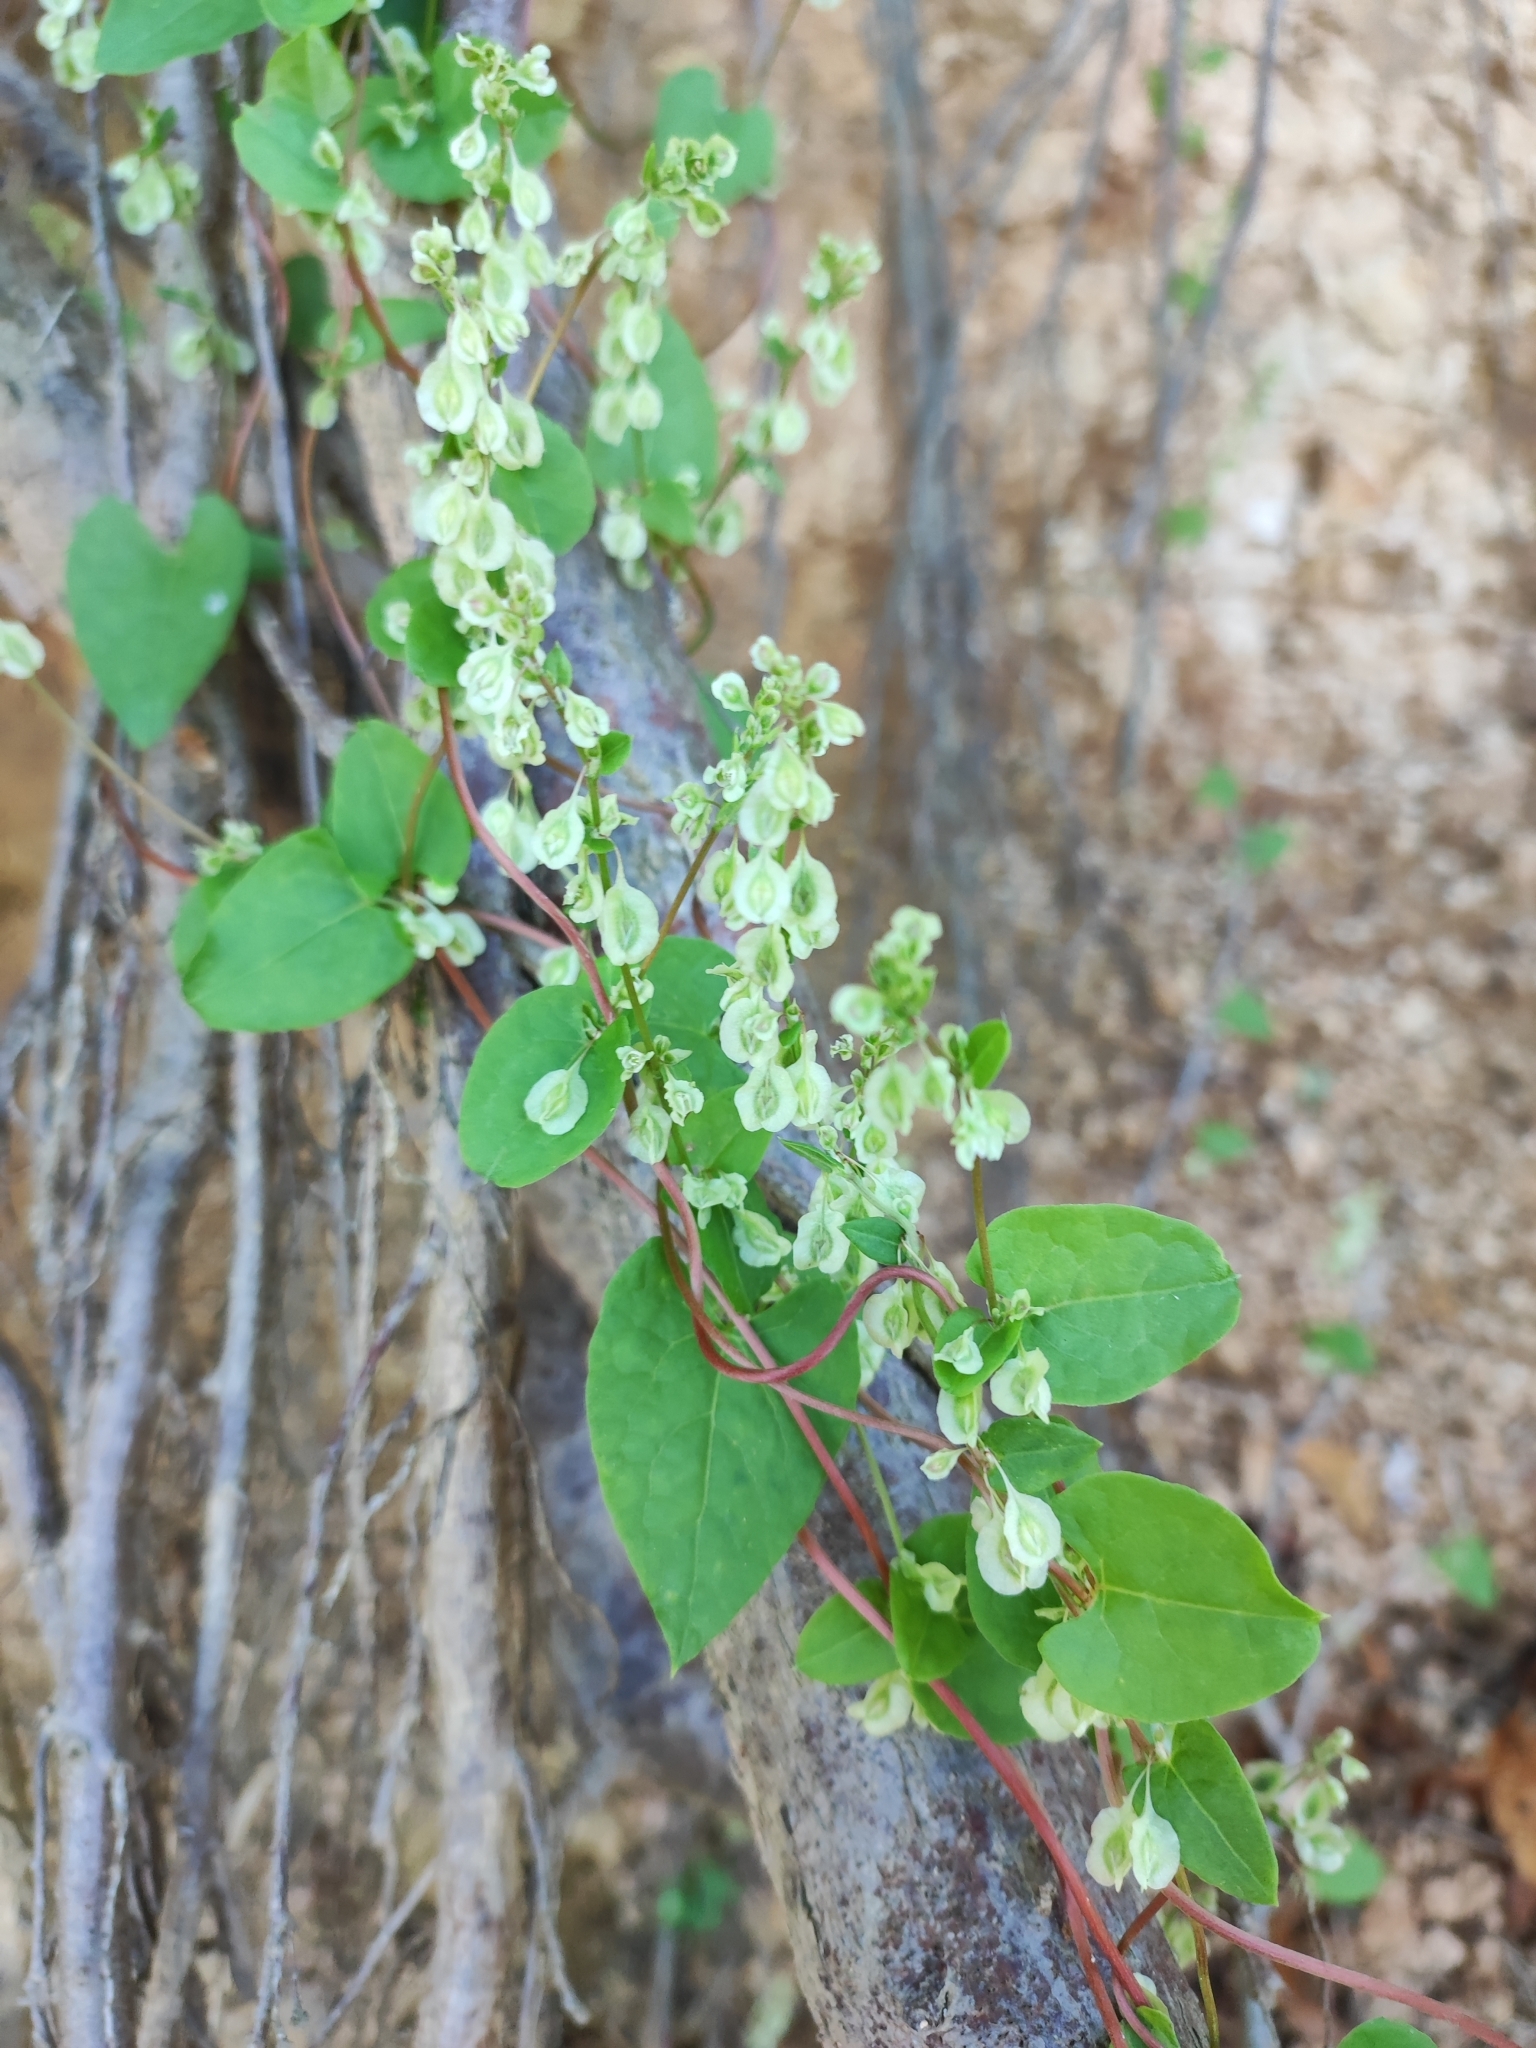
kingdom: Plantae
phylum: Tracheophyta
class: Magnoliopsida
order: Caryophyllales
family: Polygonaceae
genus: Fallopia
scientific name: Fallopia dumetorum
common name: Copse-bindweed
